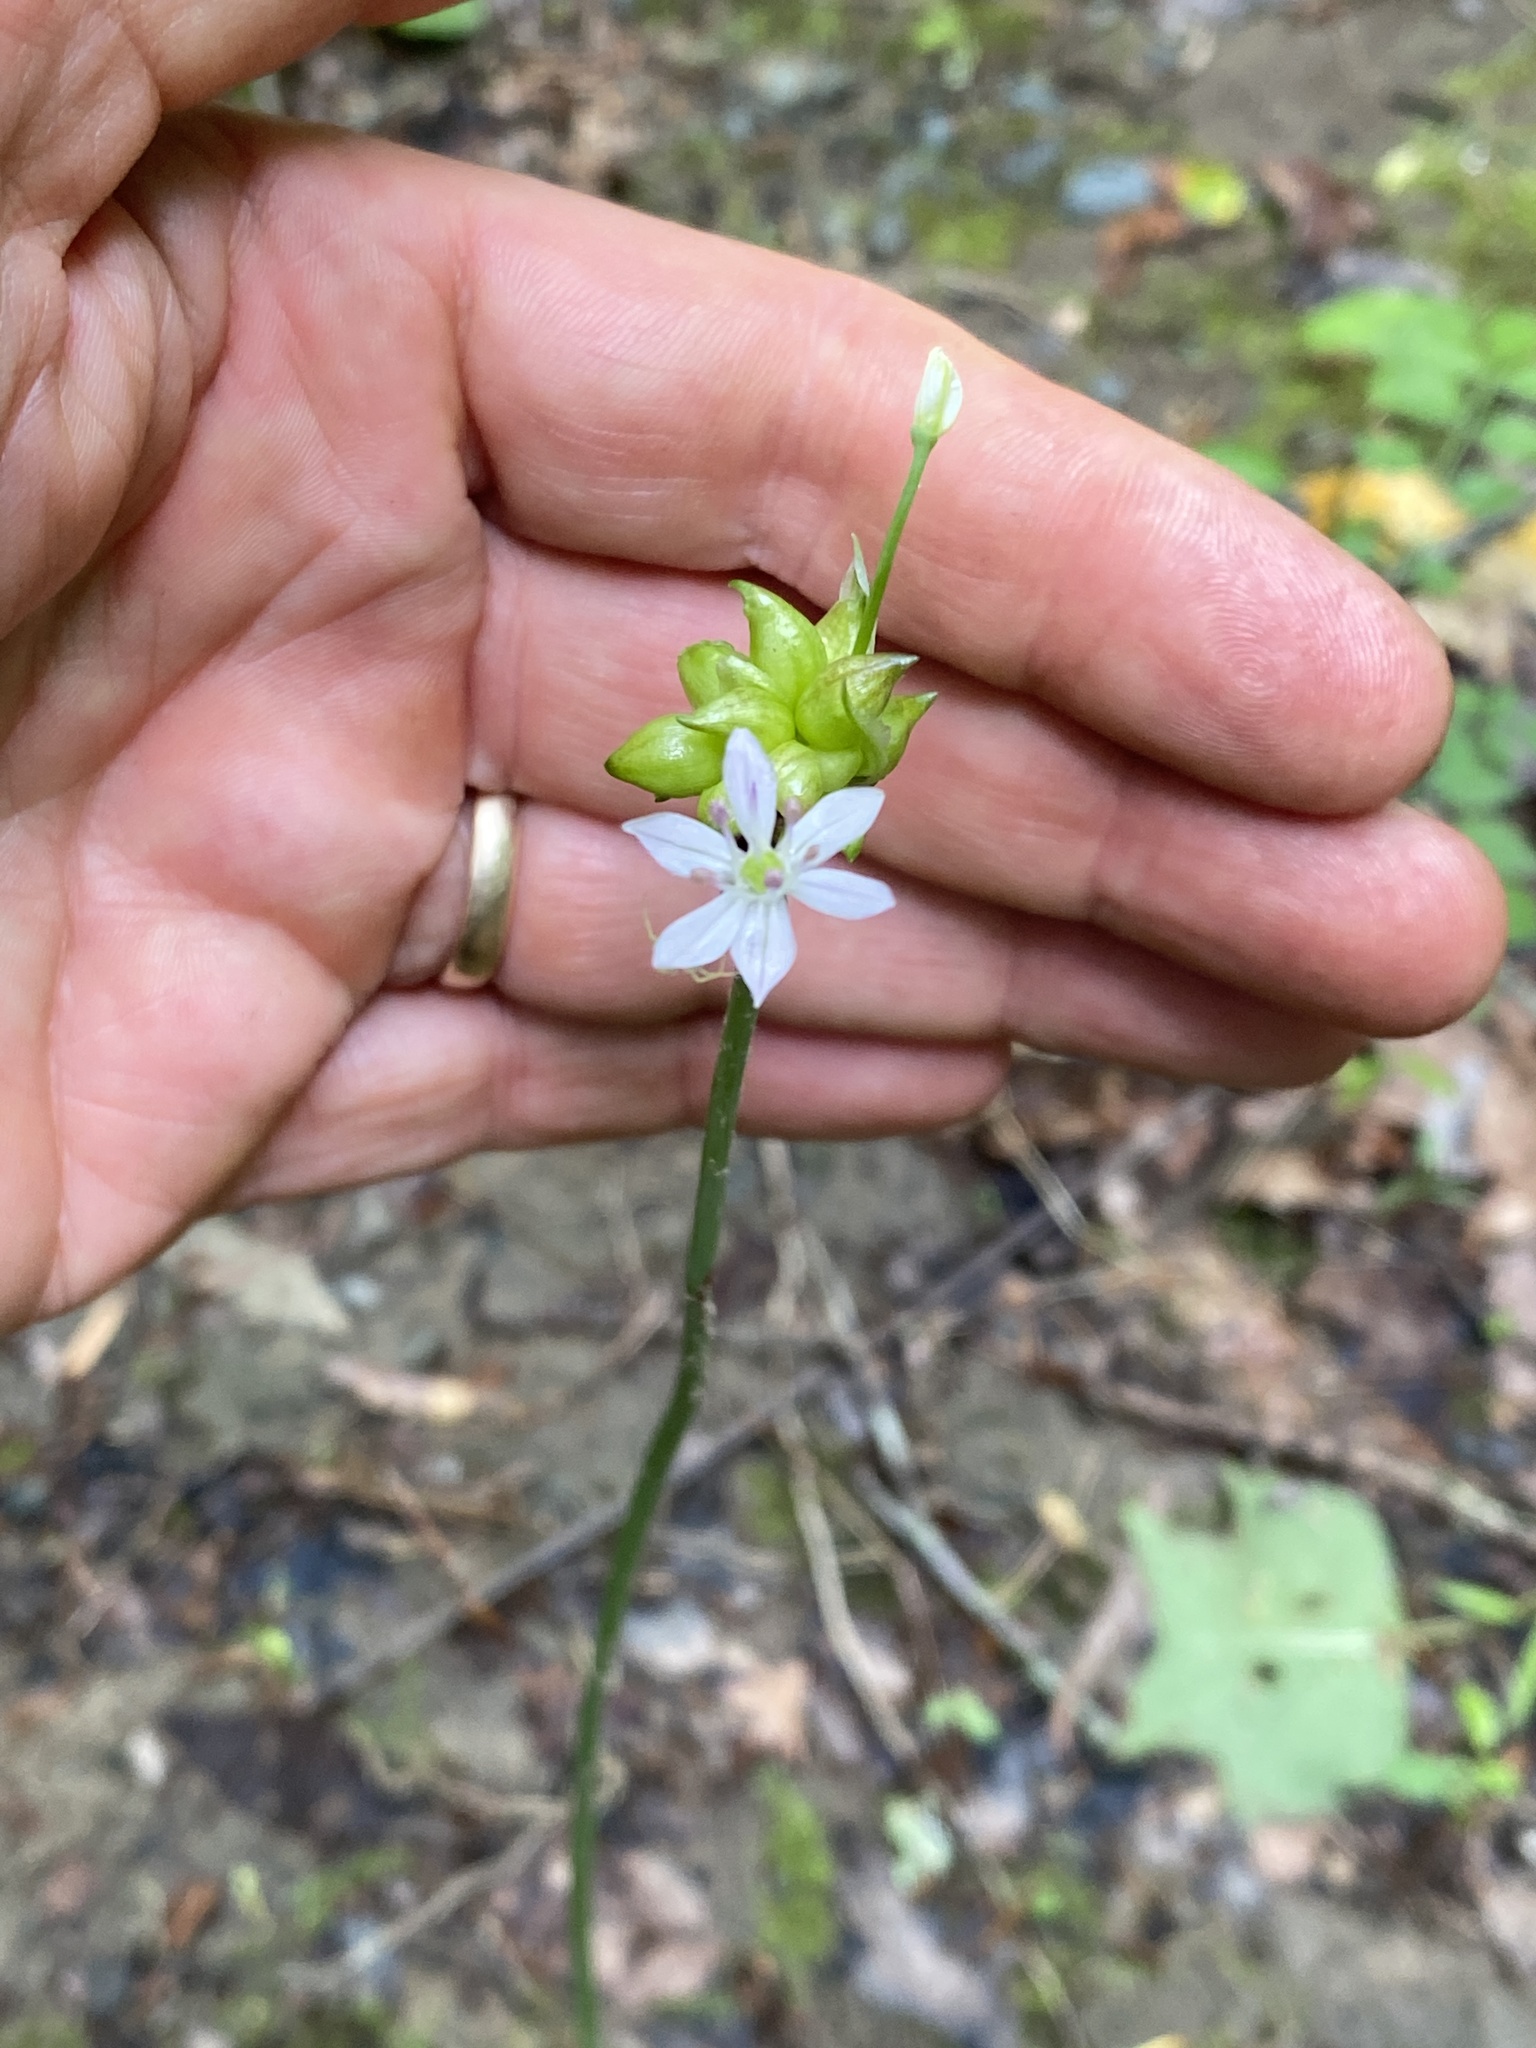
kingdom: Plantae
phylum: Tracheophyta
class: Liliopsida
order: Asparagales
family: Amaryllidaceae
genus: Allium
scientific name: Allium canadense
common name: Meadow garlic
